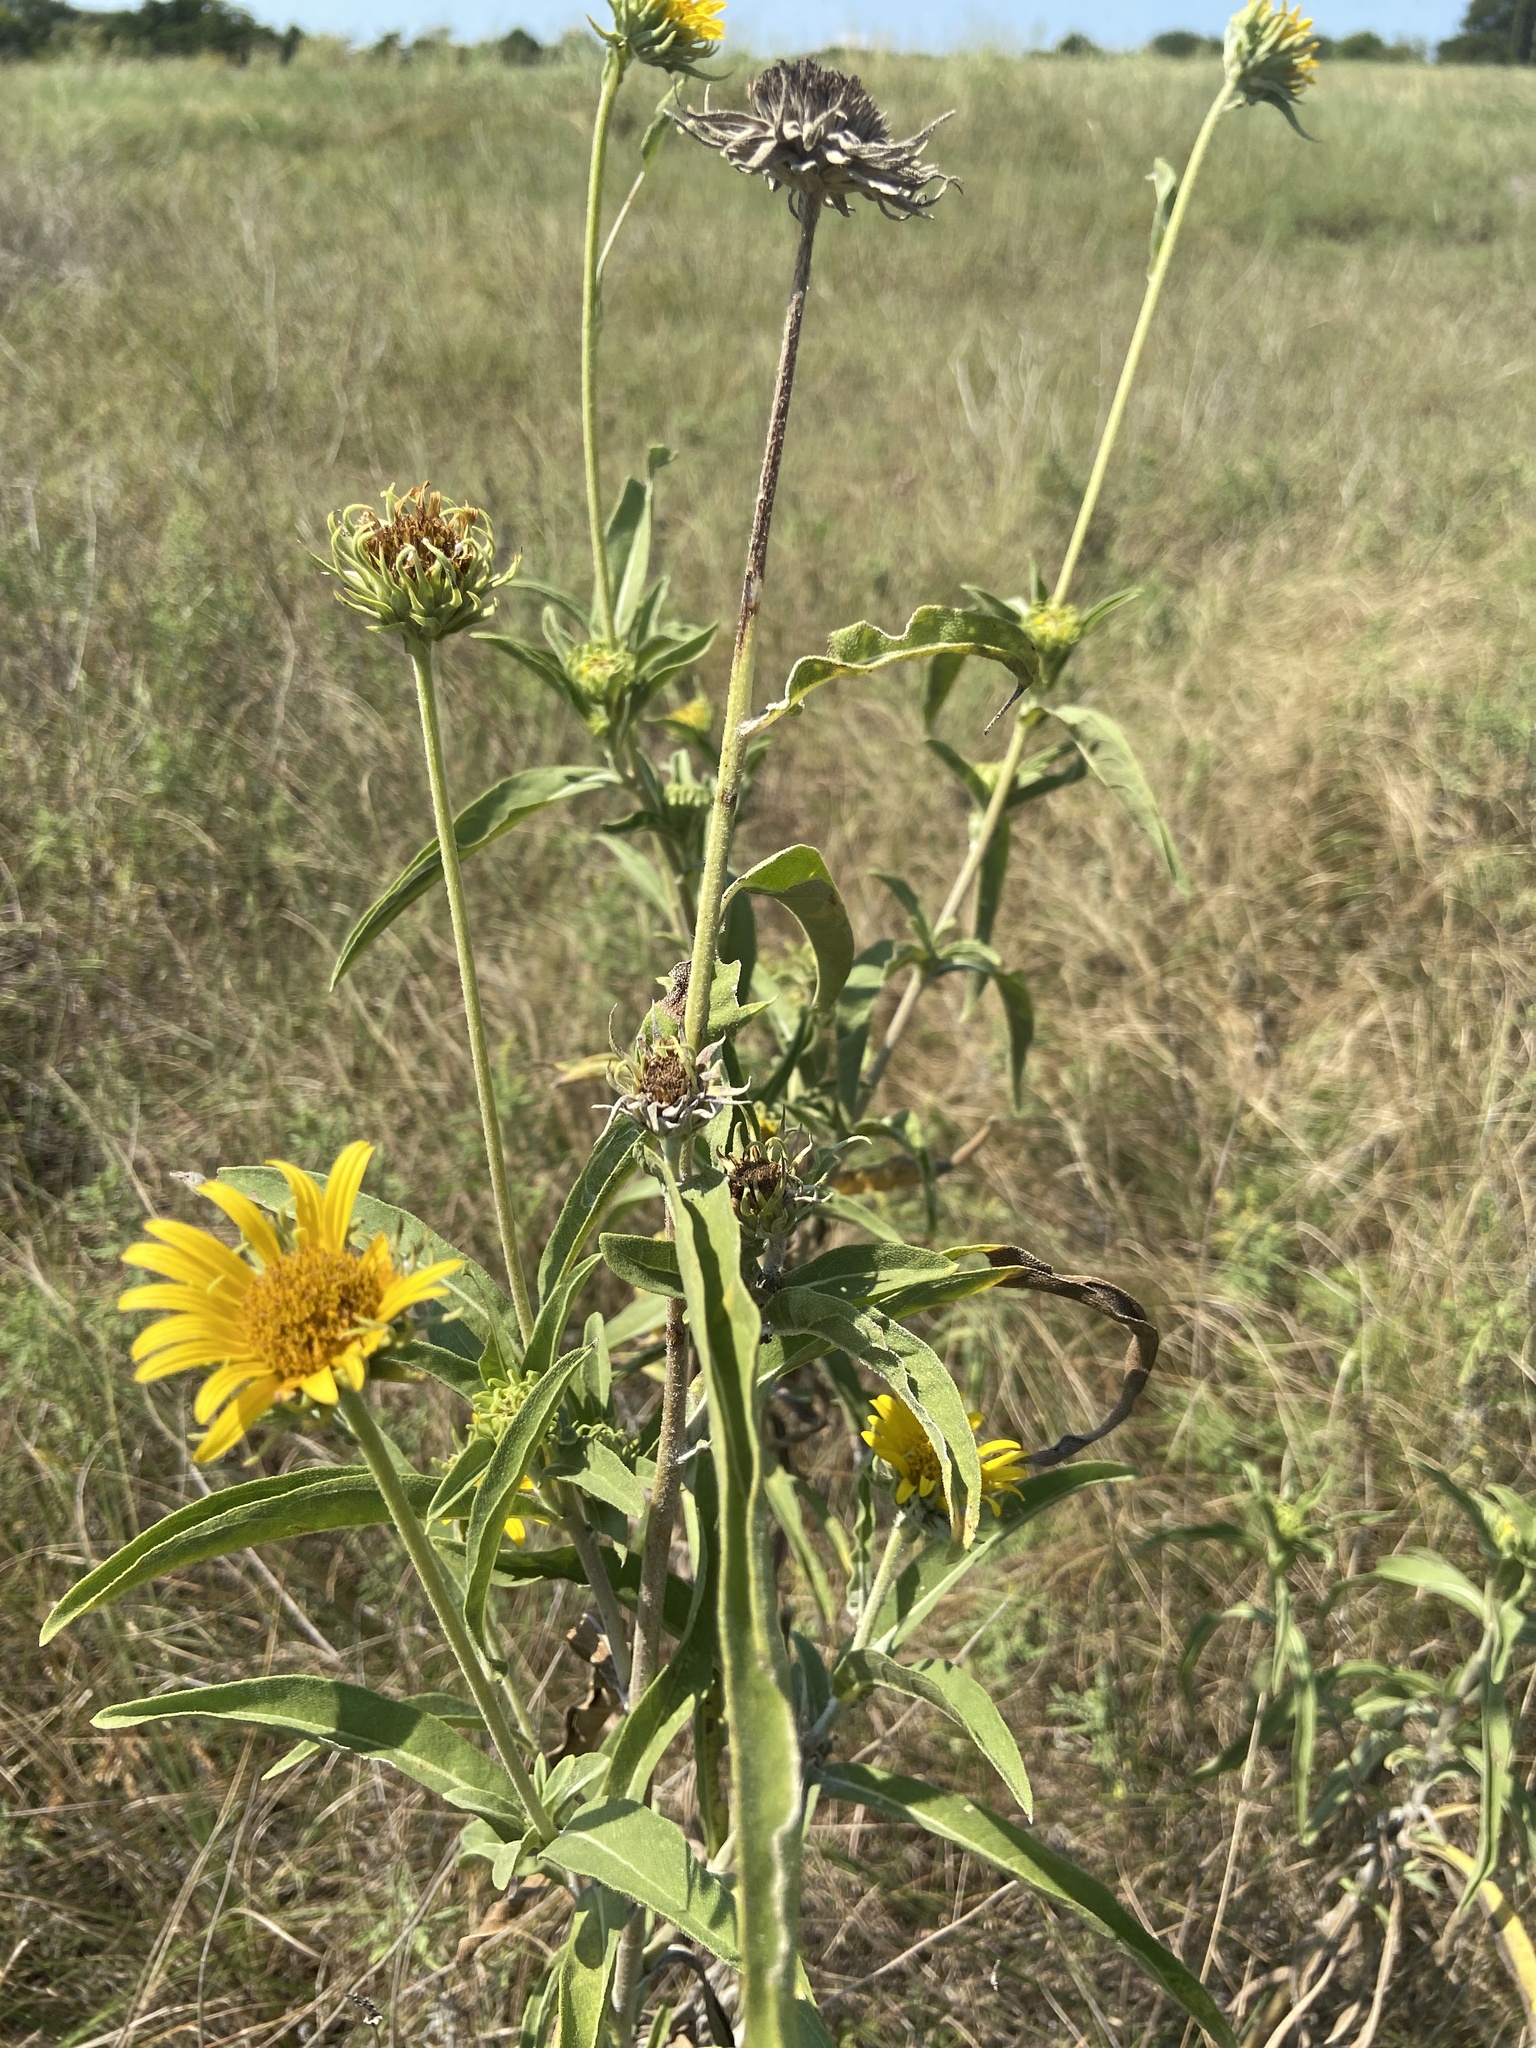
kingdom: Plantae
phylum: Tracheophyta
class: Magnoliopsida
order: Asterales
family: Asteraceae
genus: Helianthus
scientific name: Helianthus maximiliani
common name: Maximilian's sunflower
